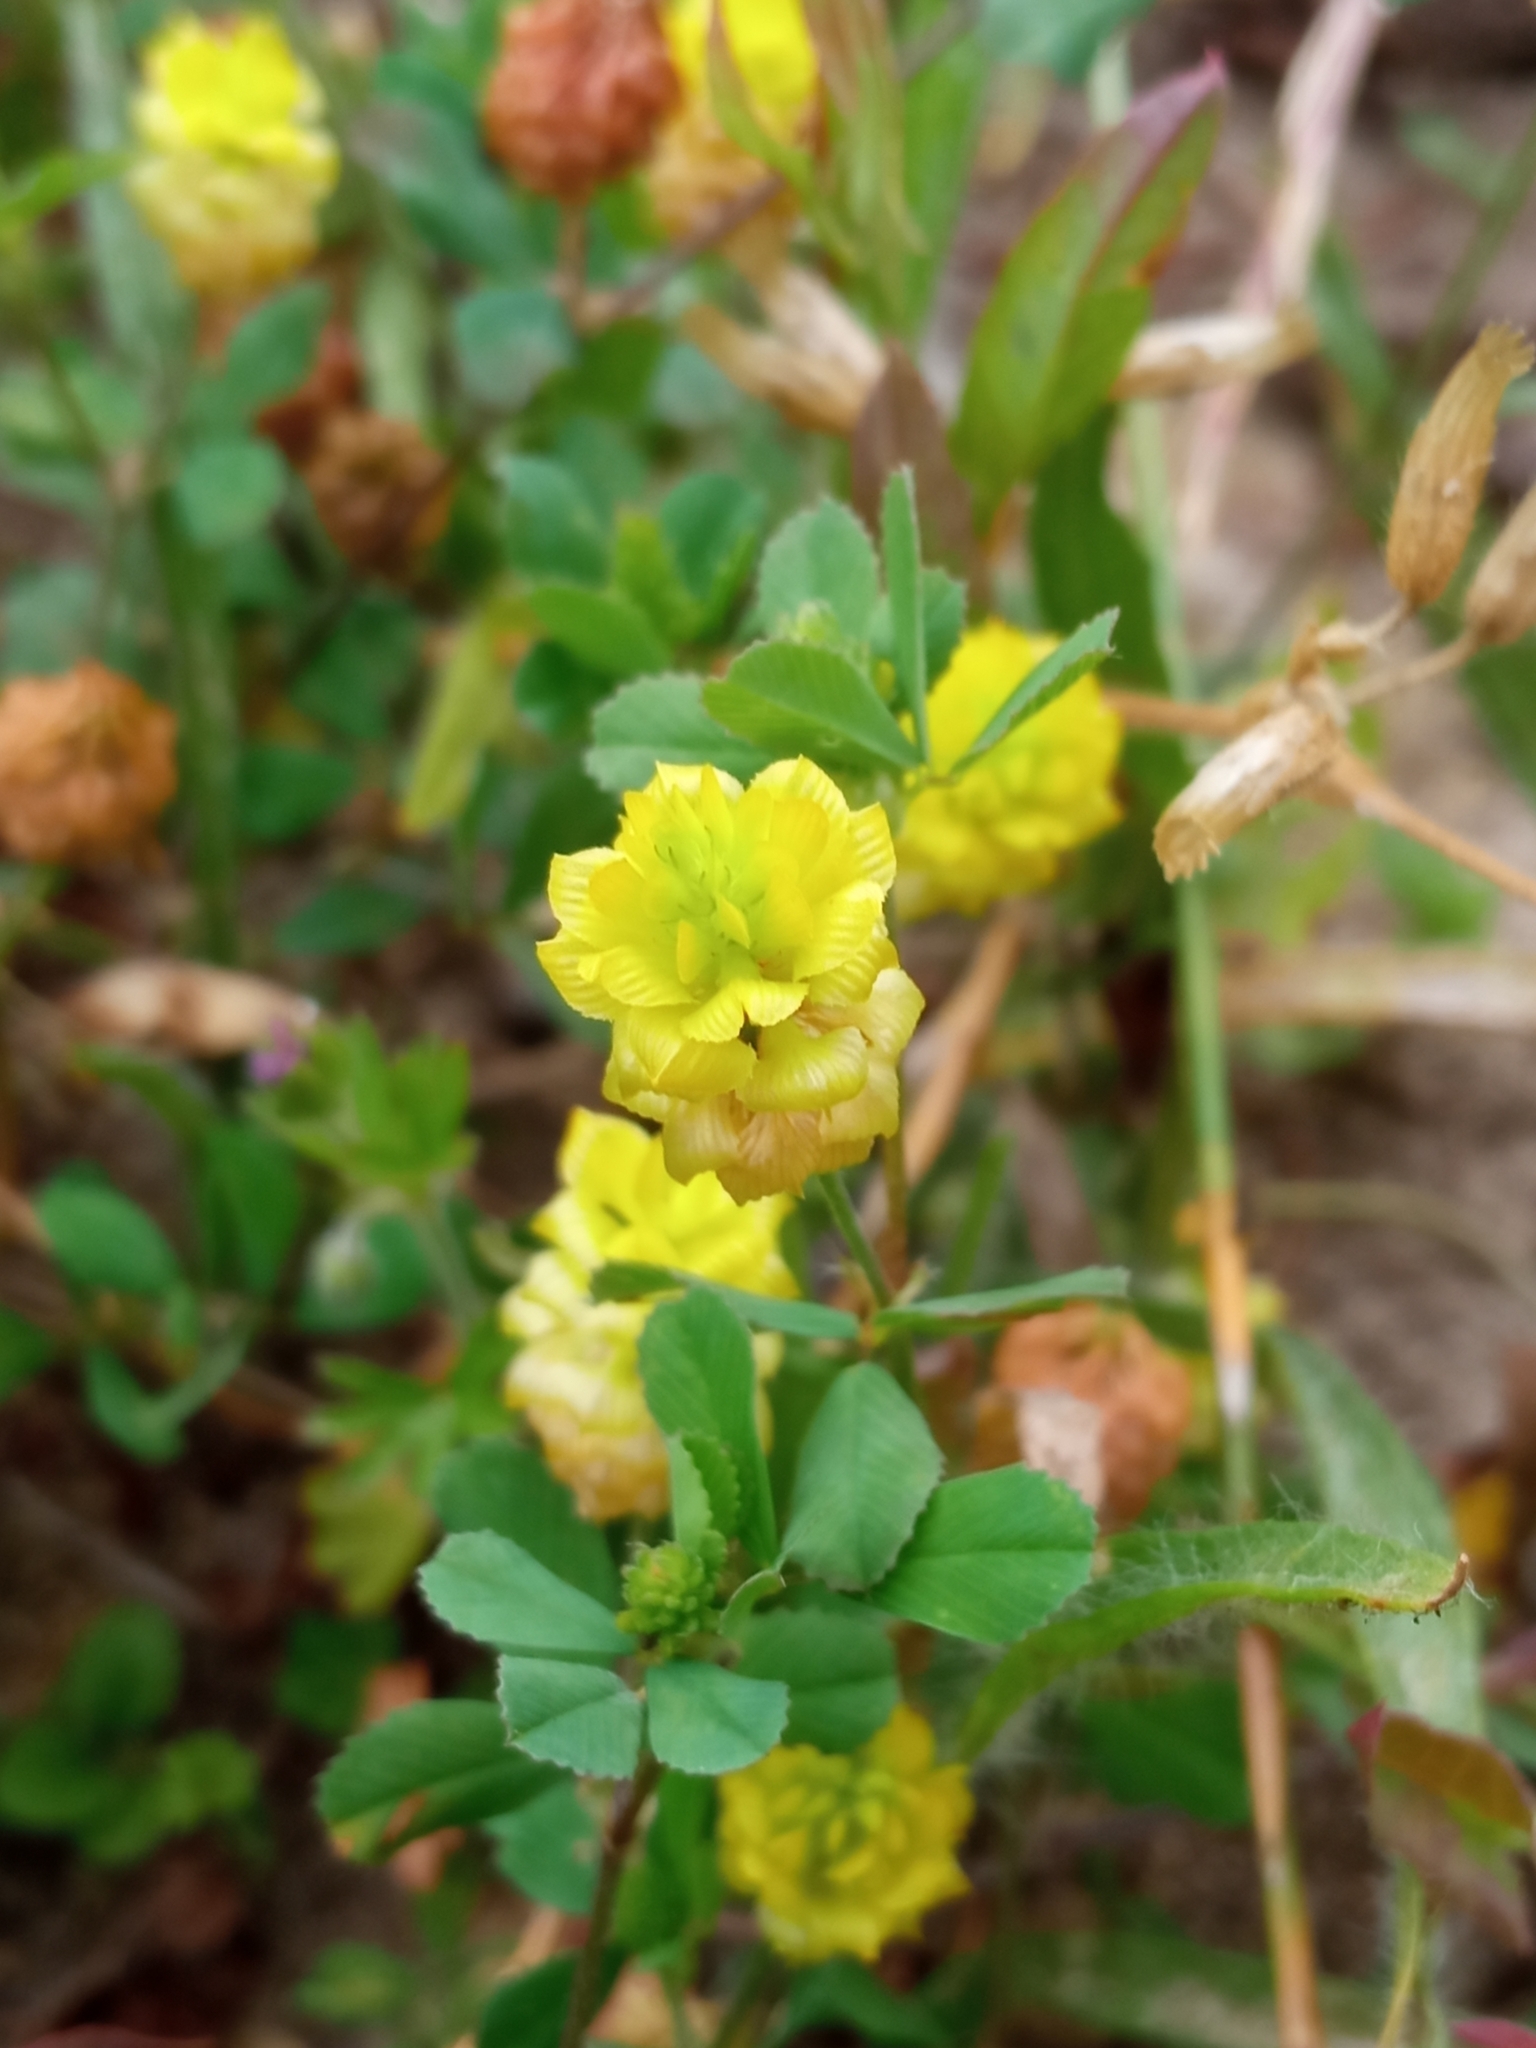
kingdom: Plantae
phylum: Tracheophyta
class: Magnoliopsida
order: Fabales
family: Fabaceae
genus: Trifolium
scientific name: Trifolium campestre
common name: Field clover
